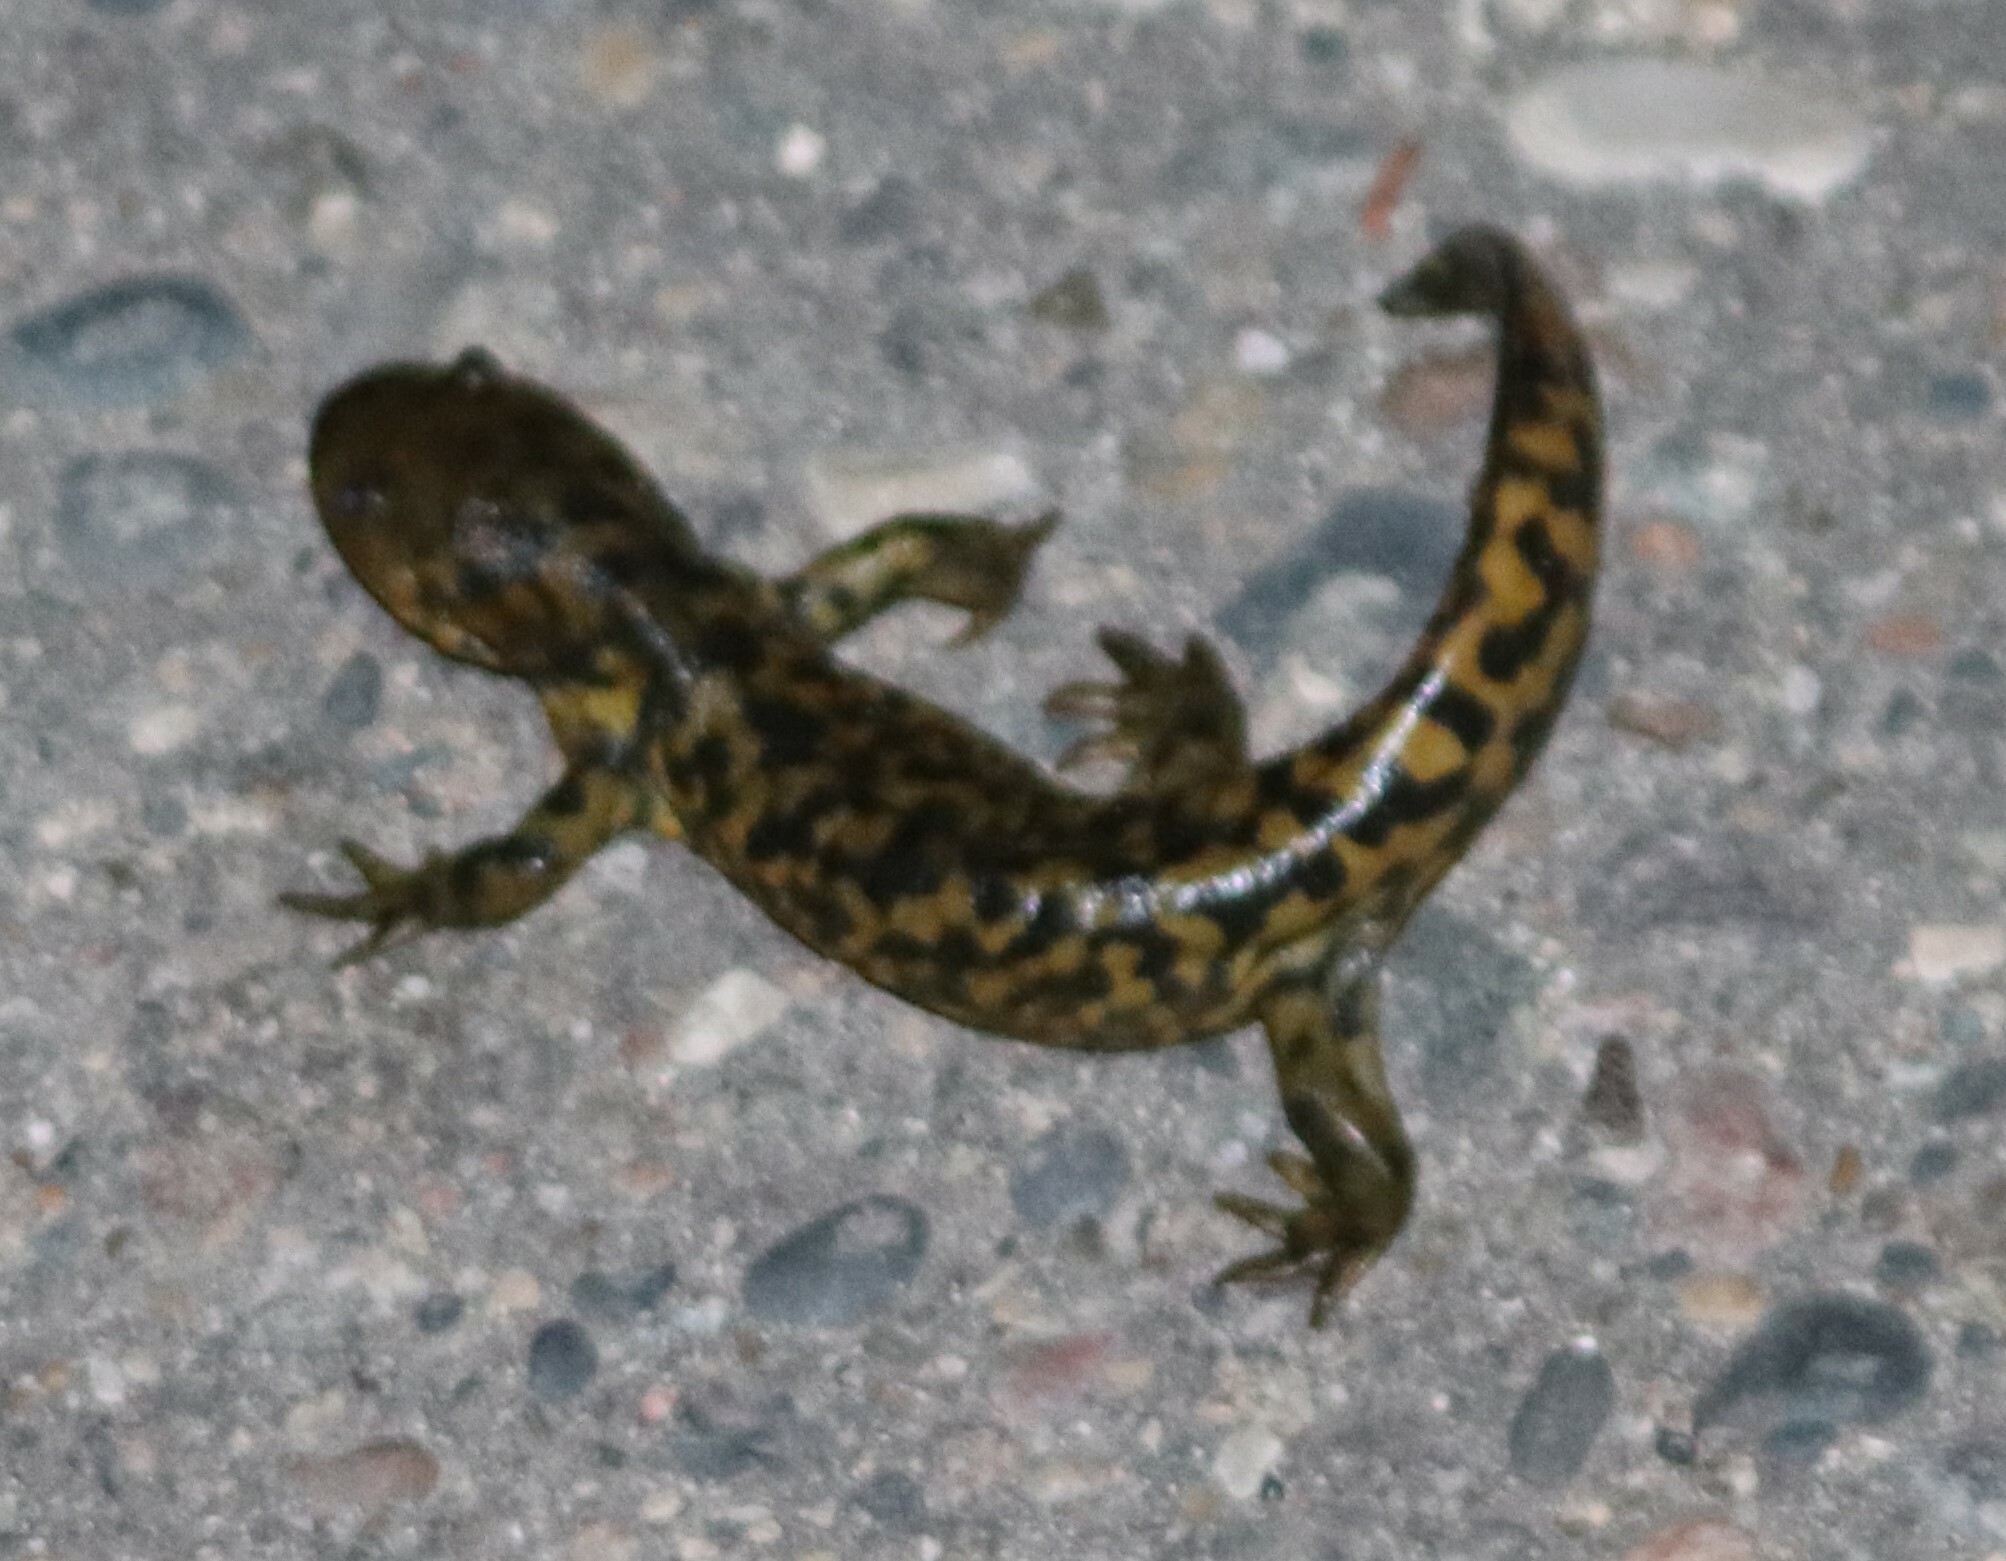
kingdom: Animalia
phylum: Chordata
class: Amphibia
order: Caudata
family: Ambystomatidae
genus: Ambystoma
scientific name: Ambystoma mavortium
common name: Western tiger salamander
